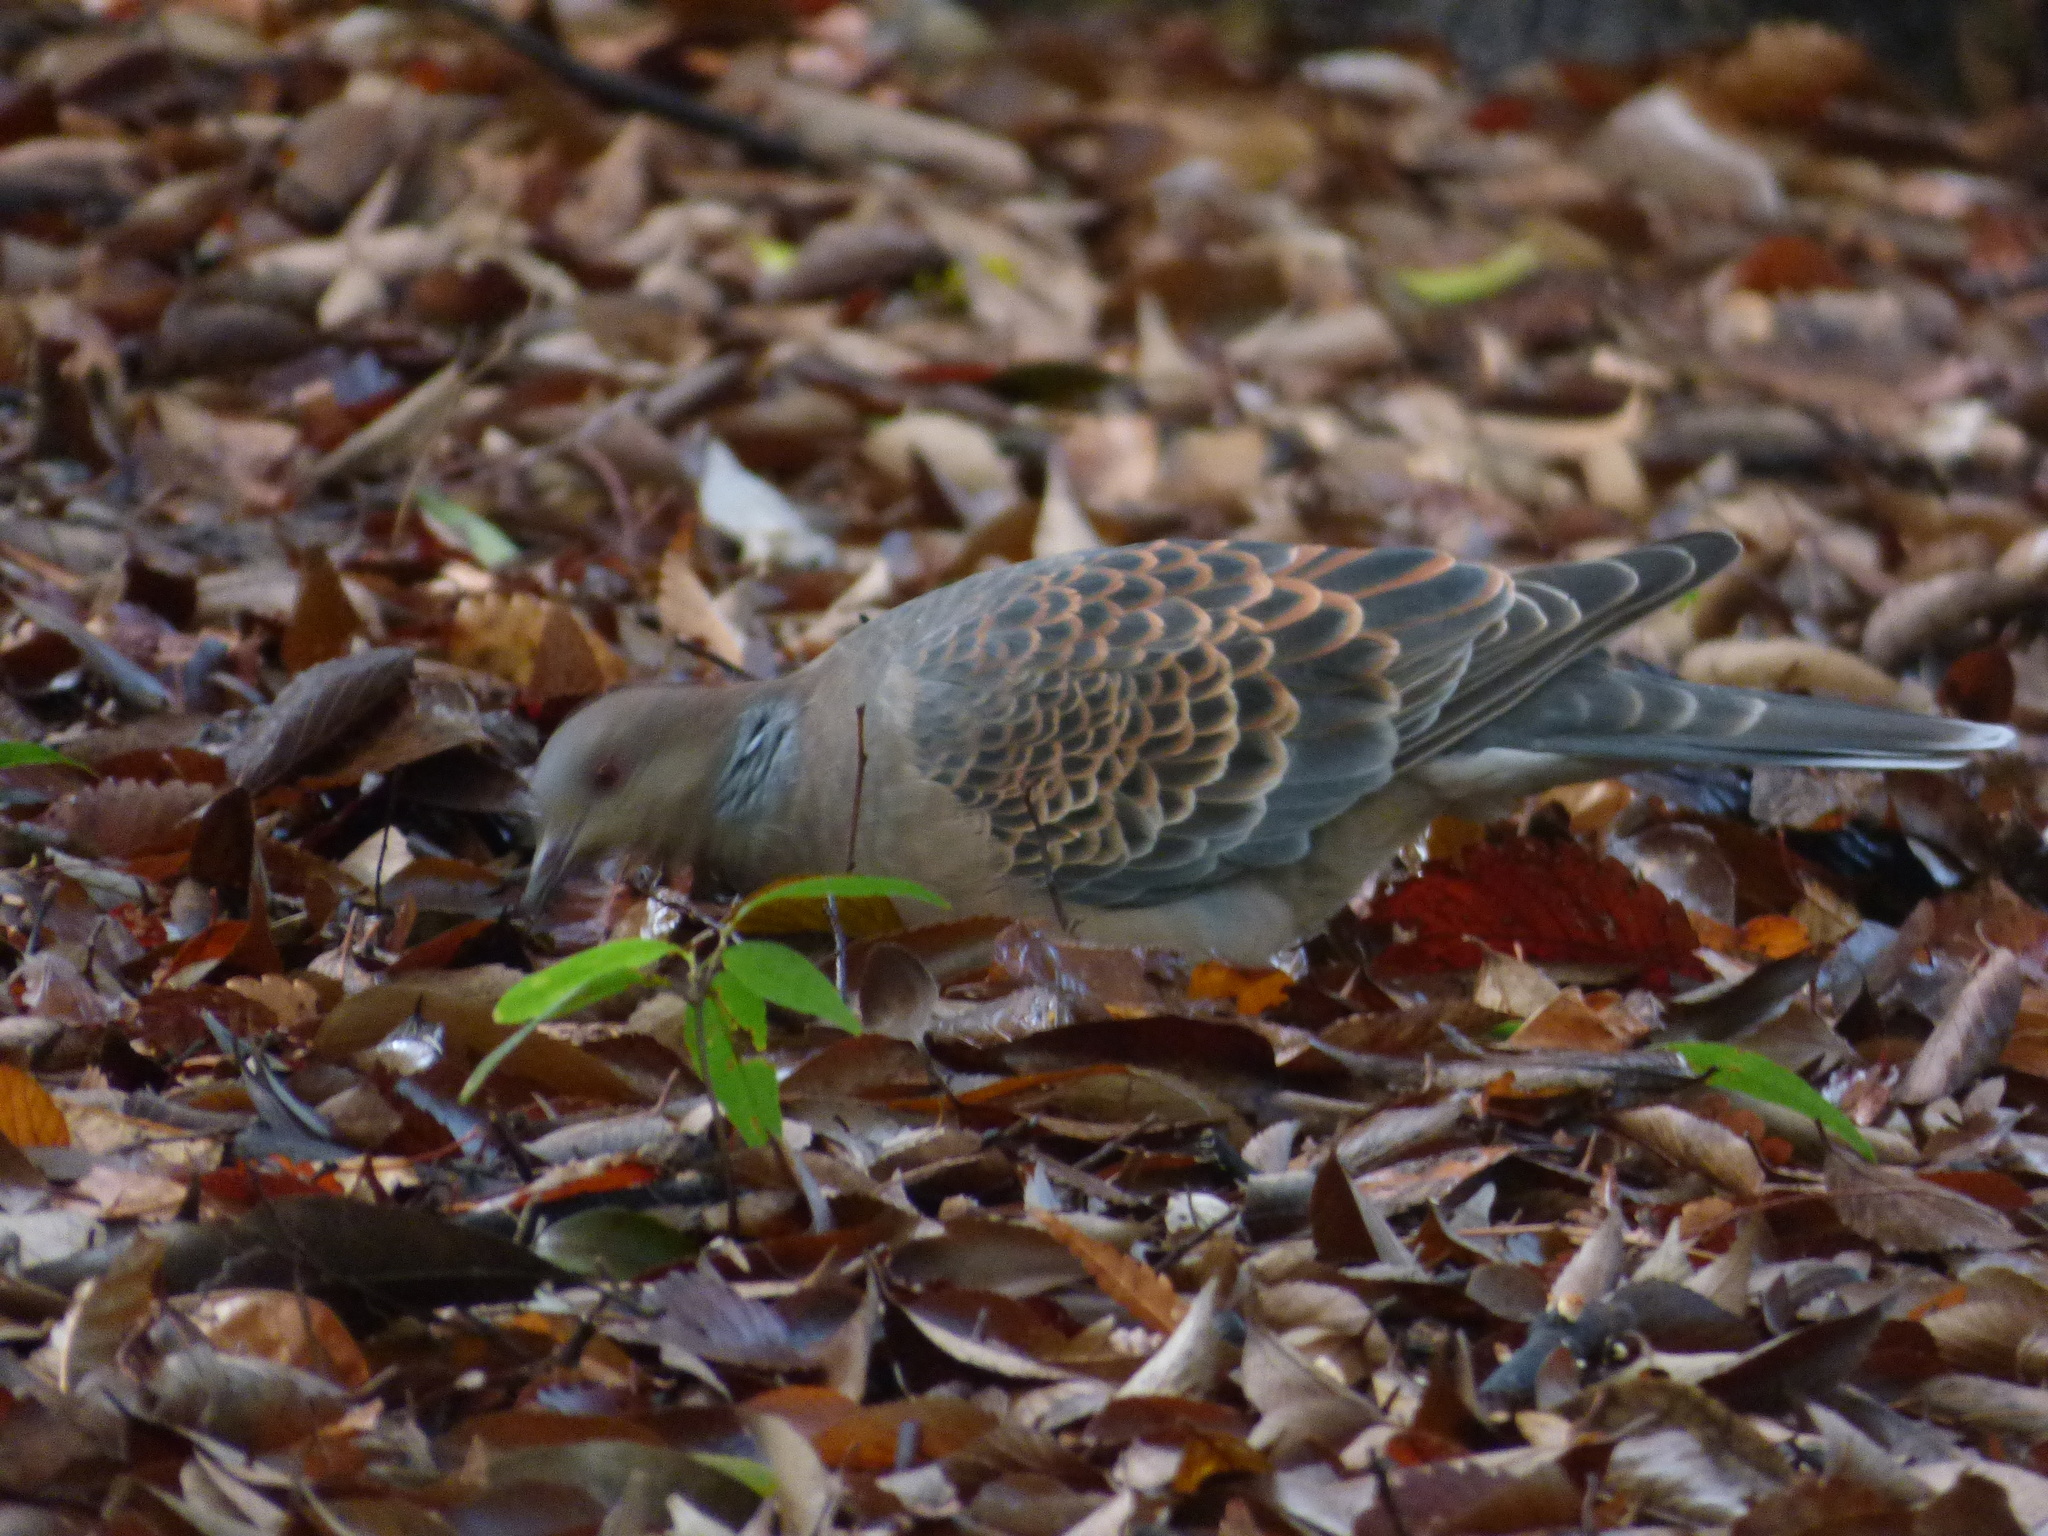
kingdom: Animalia
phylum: Chordata
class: Aves
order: Columbiformes
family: Columbidae
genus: Streptopelia
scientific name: Streptopelia orientalis
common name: Oriental turtle dove
